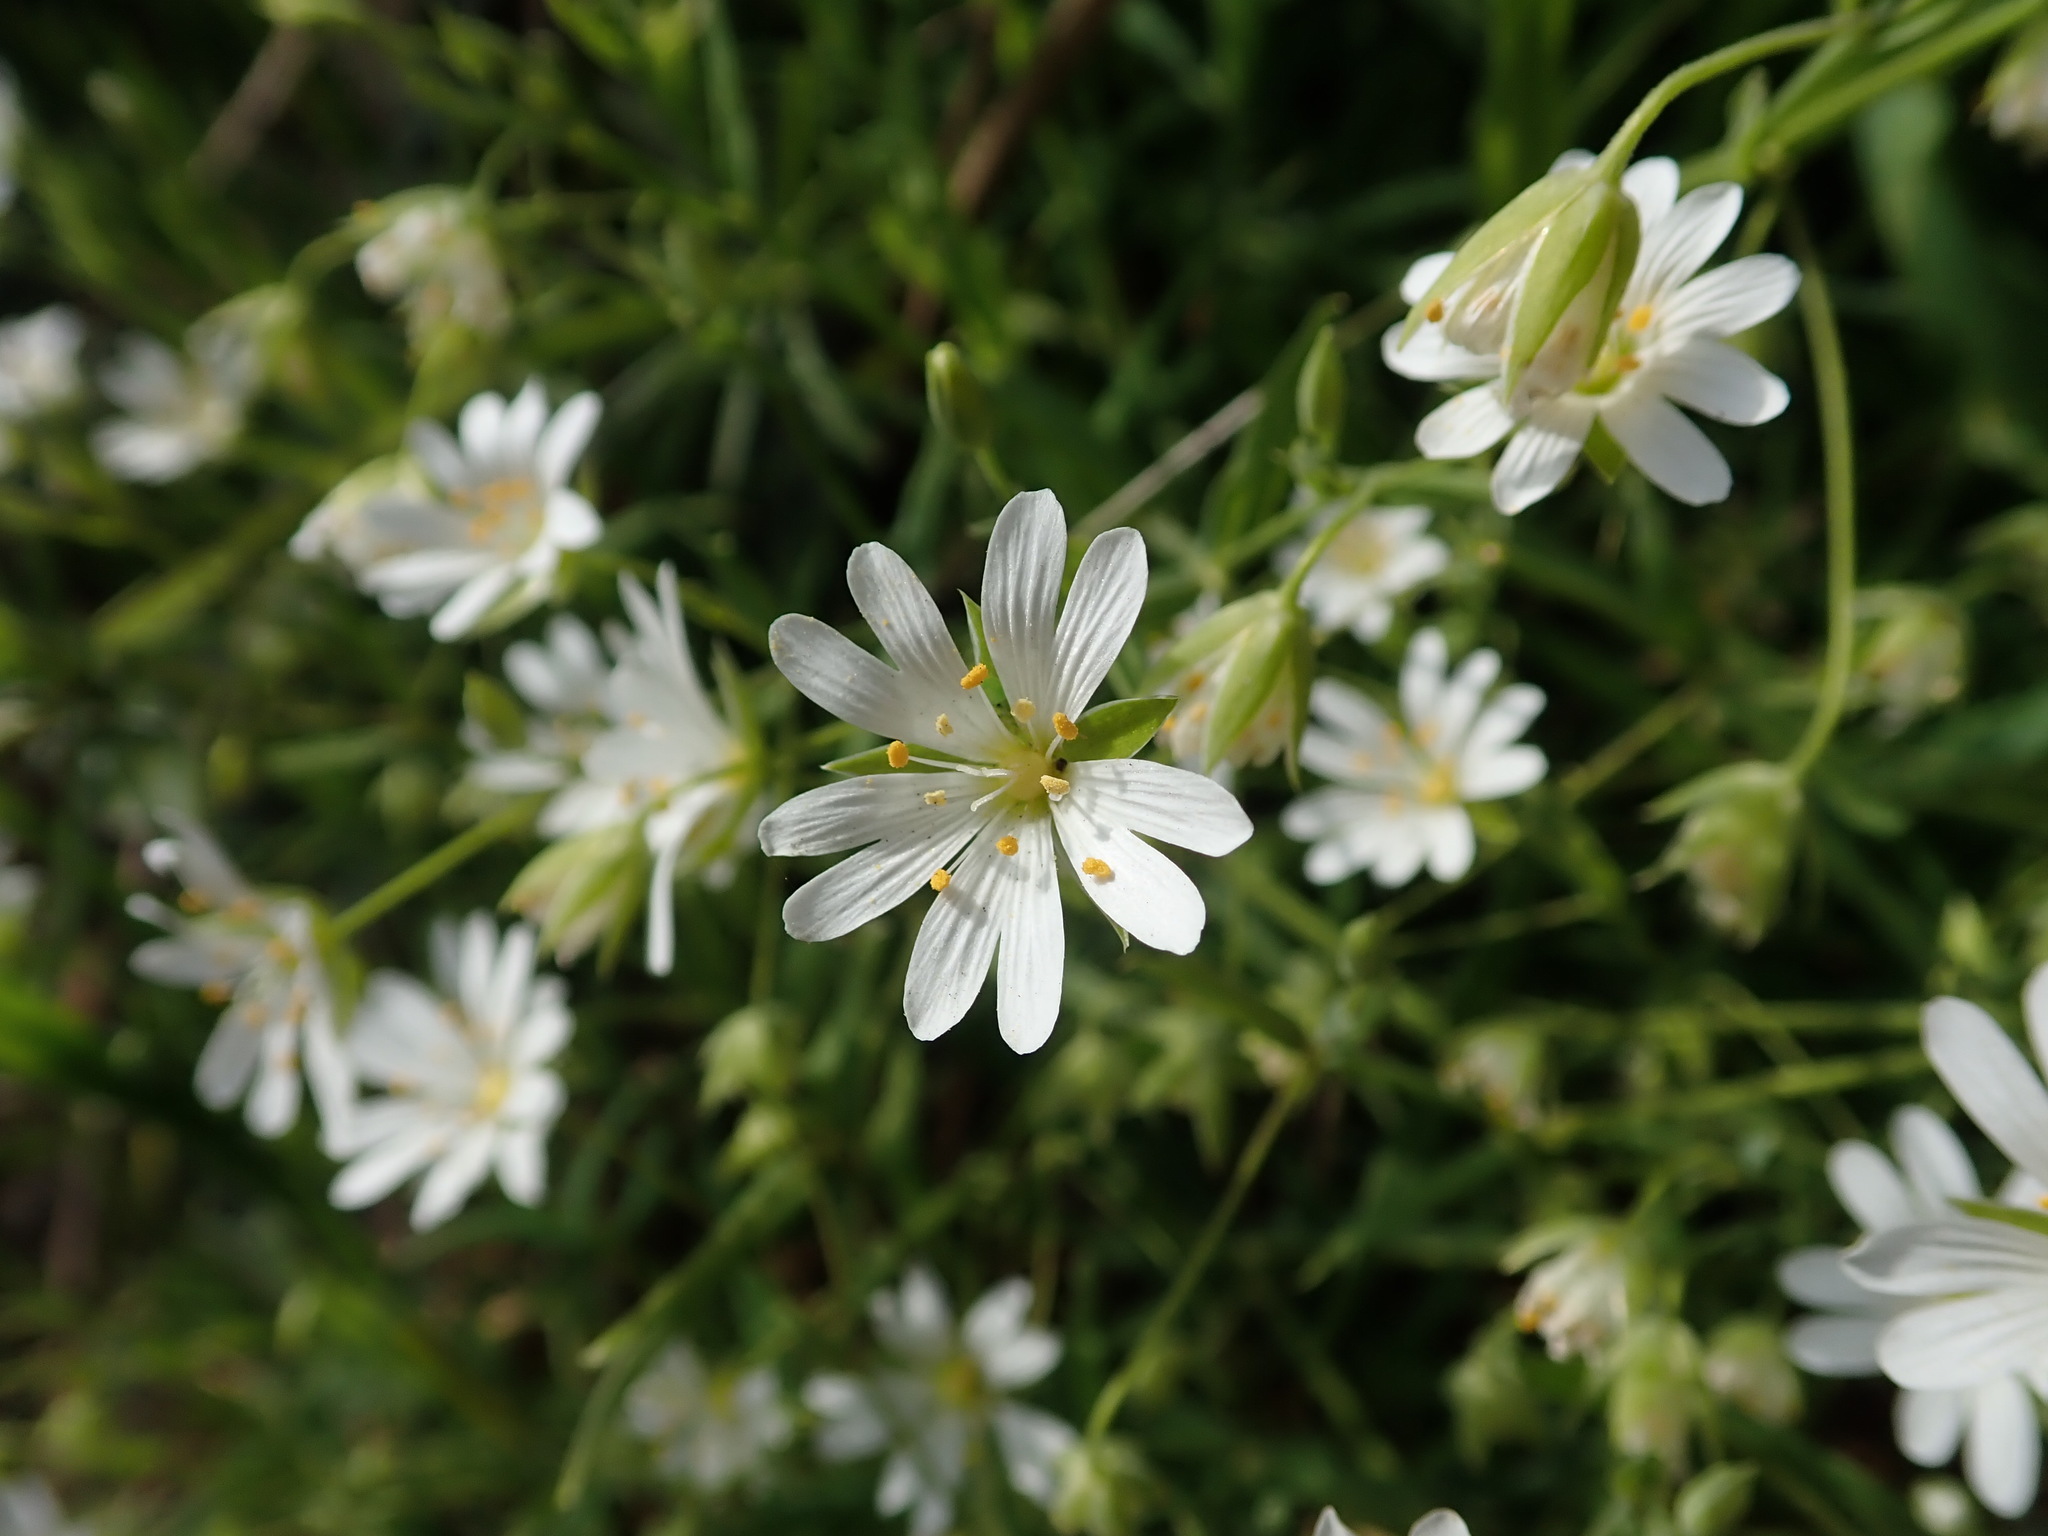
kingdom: Plantae
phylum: Tracheophyta
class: Magnoliopsida
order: Caryophyllales
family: Caryophyllaceae
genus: Rabelera
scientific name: Rabelera holostea
